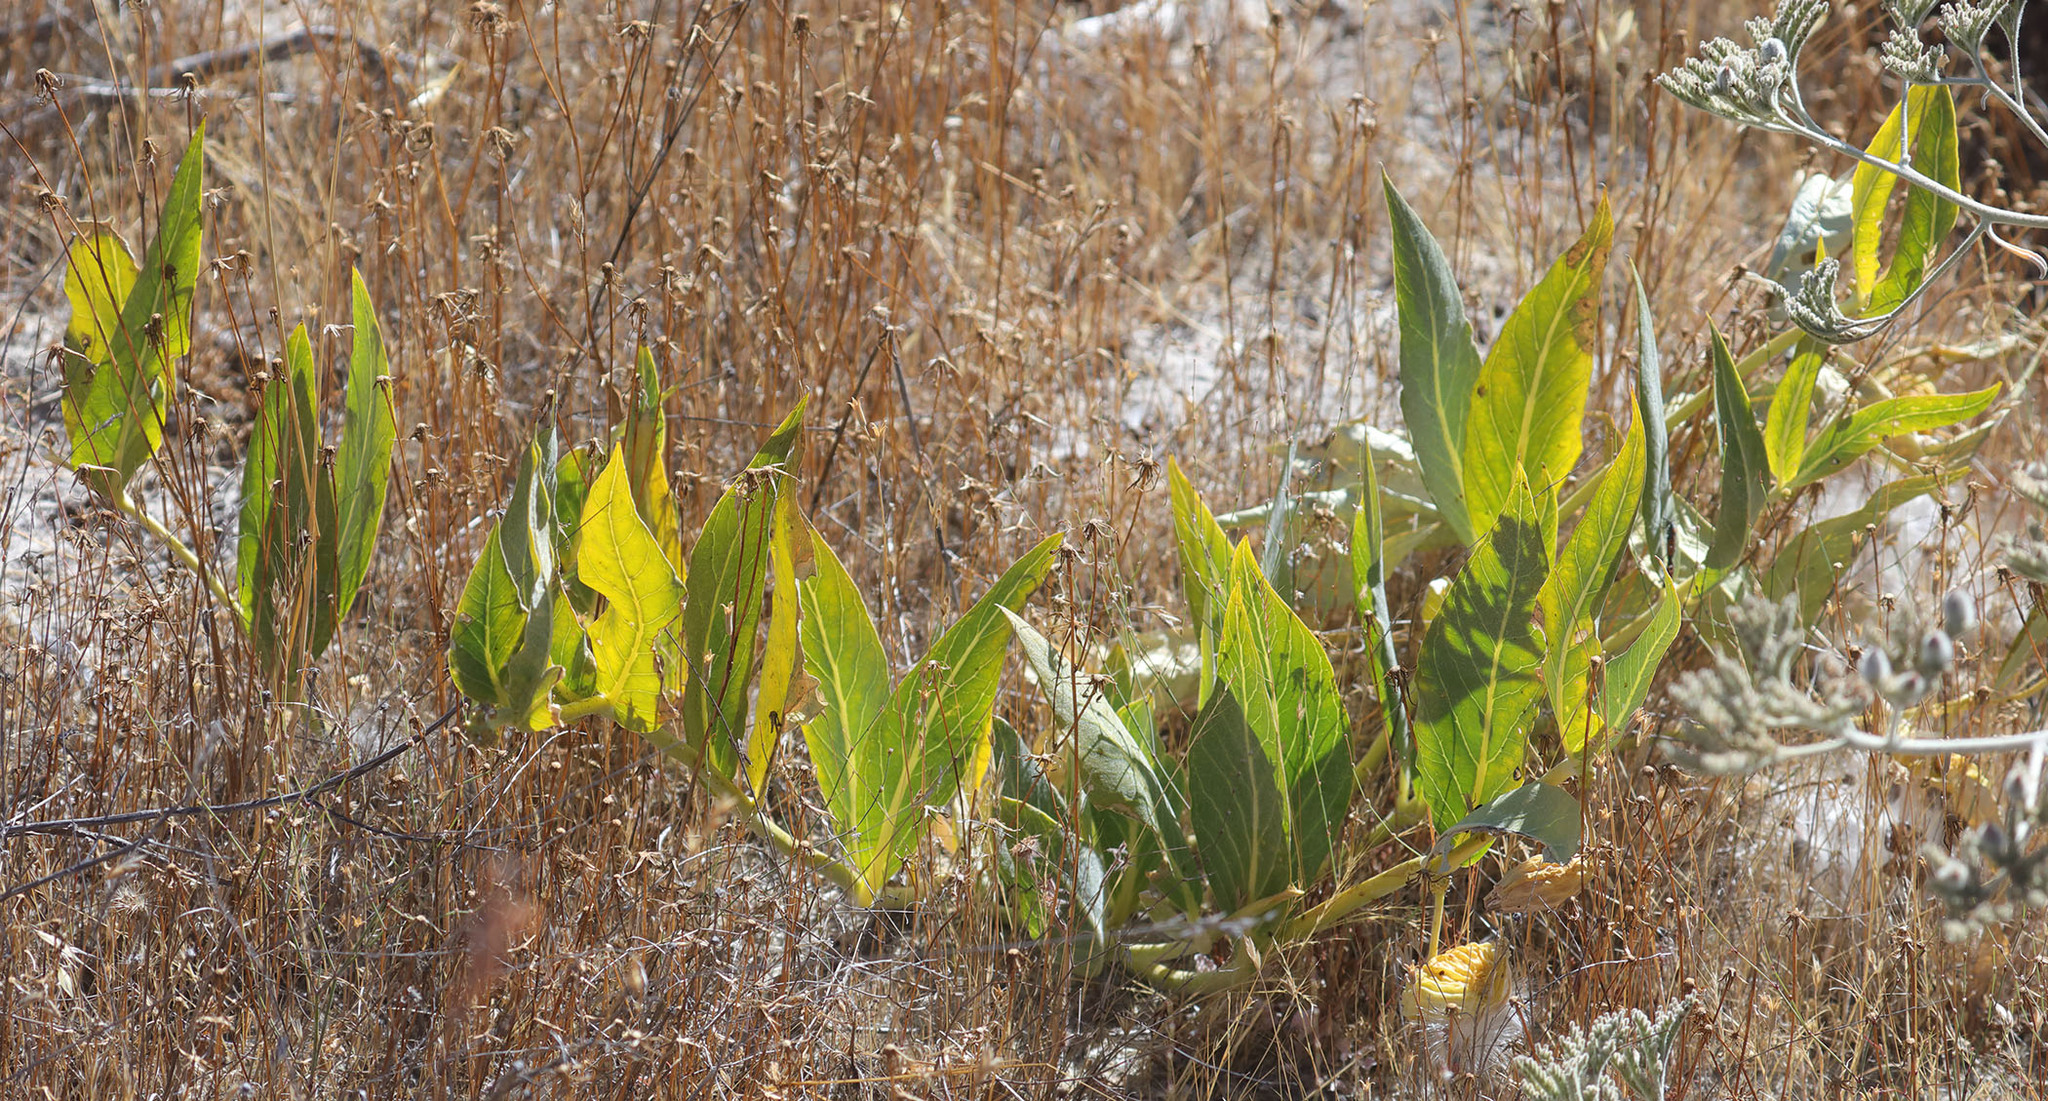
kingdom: Plantae
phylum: Tracheophyta
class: Magnoliopsida
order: Gentianales
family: Apocynaceae
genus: Asclepias
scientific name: Asclepias vestita
